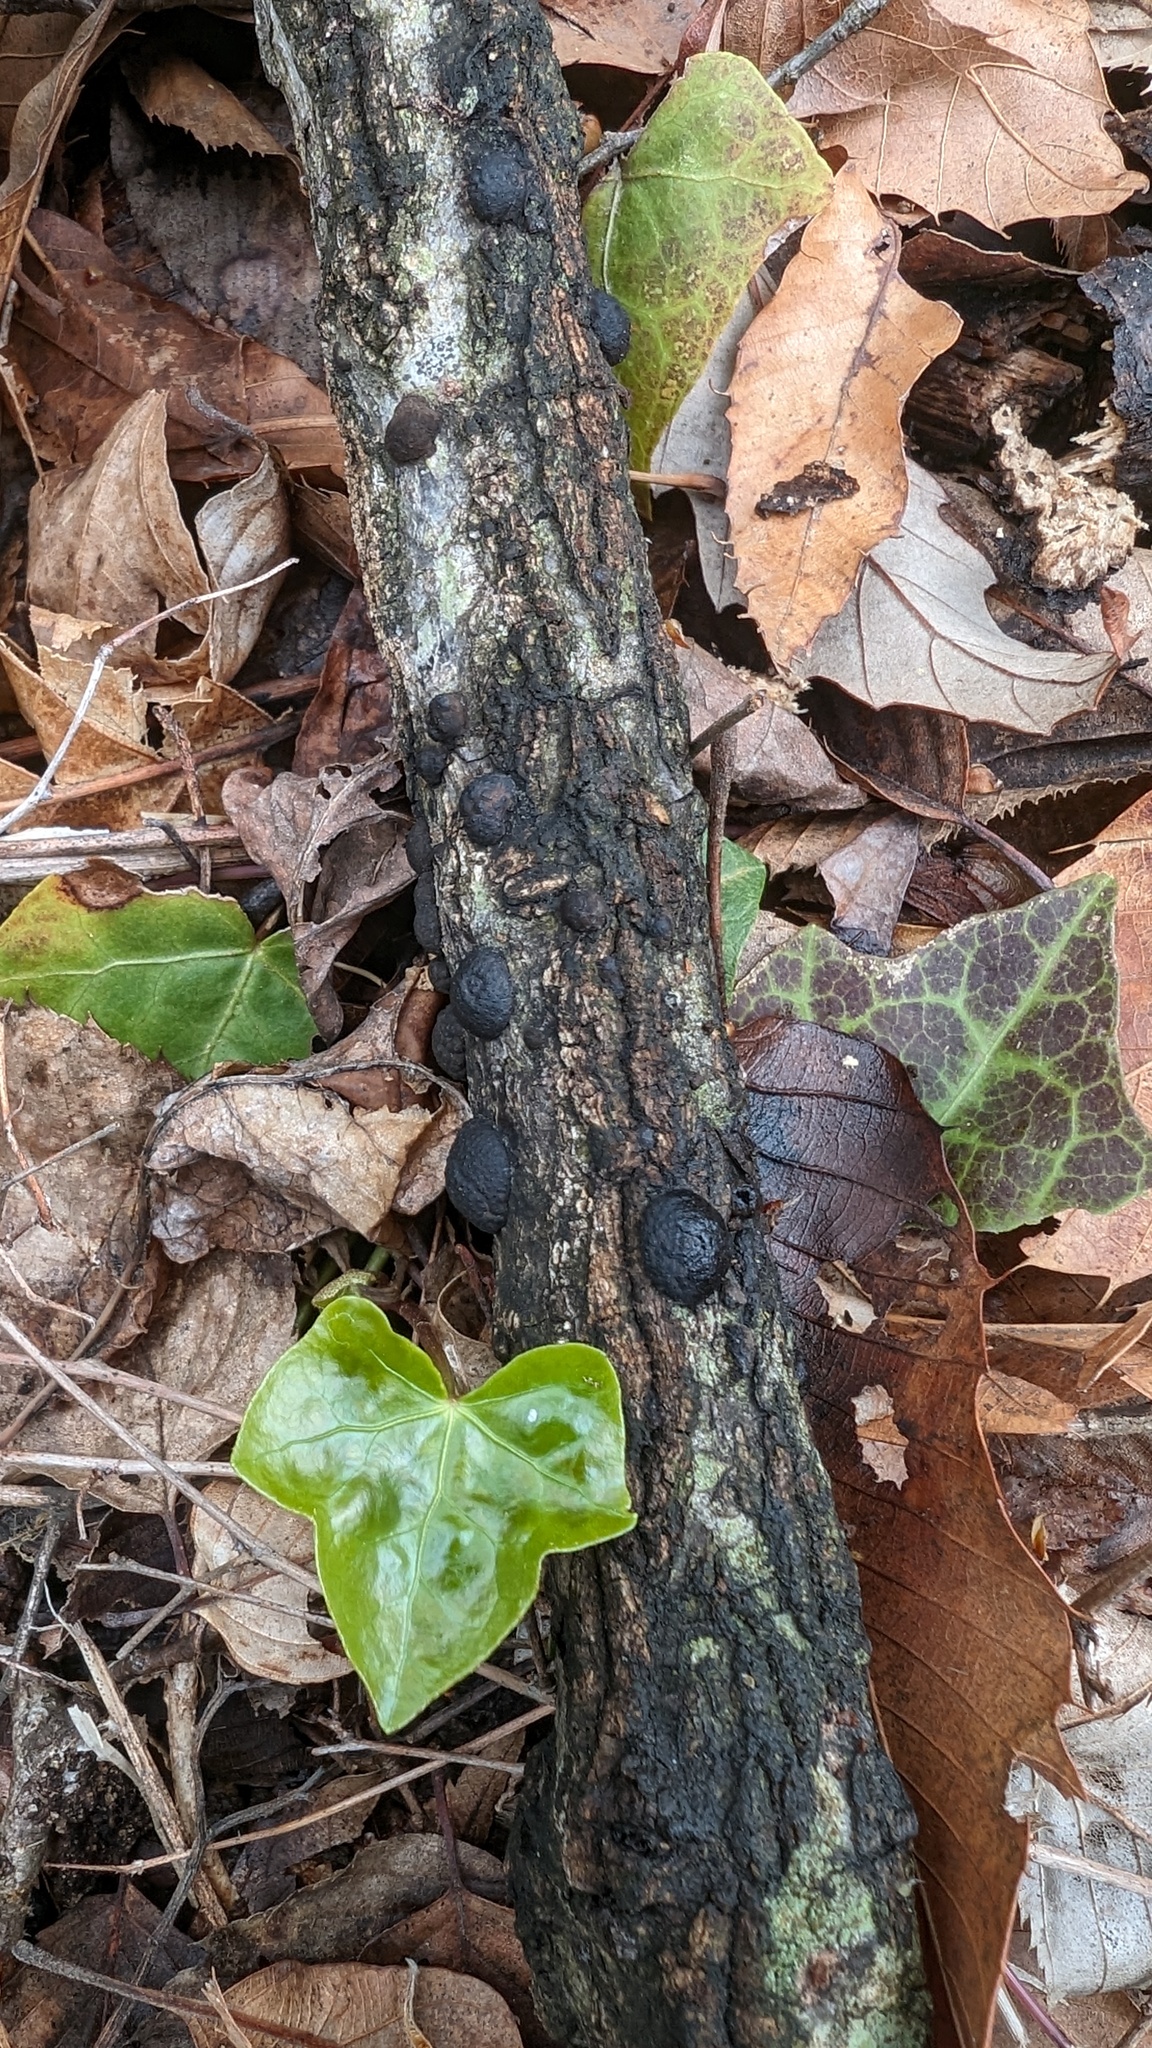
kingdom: Fungi
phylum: Ascomycota
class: Sordariomycetes
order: Xylariales
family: Hypoxylaceae
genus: Annulohypoxylon
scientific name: Annulohypoxylon truncatum
